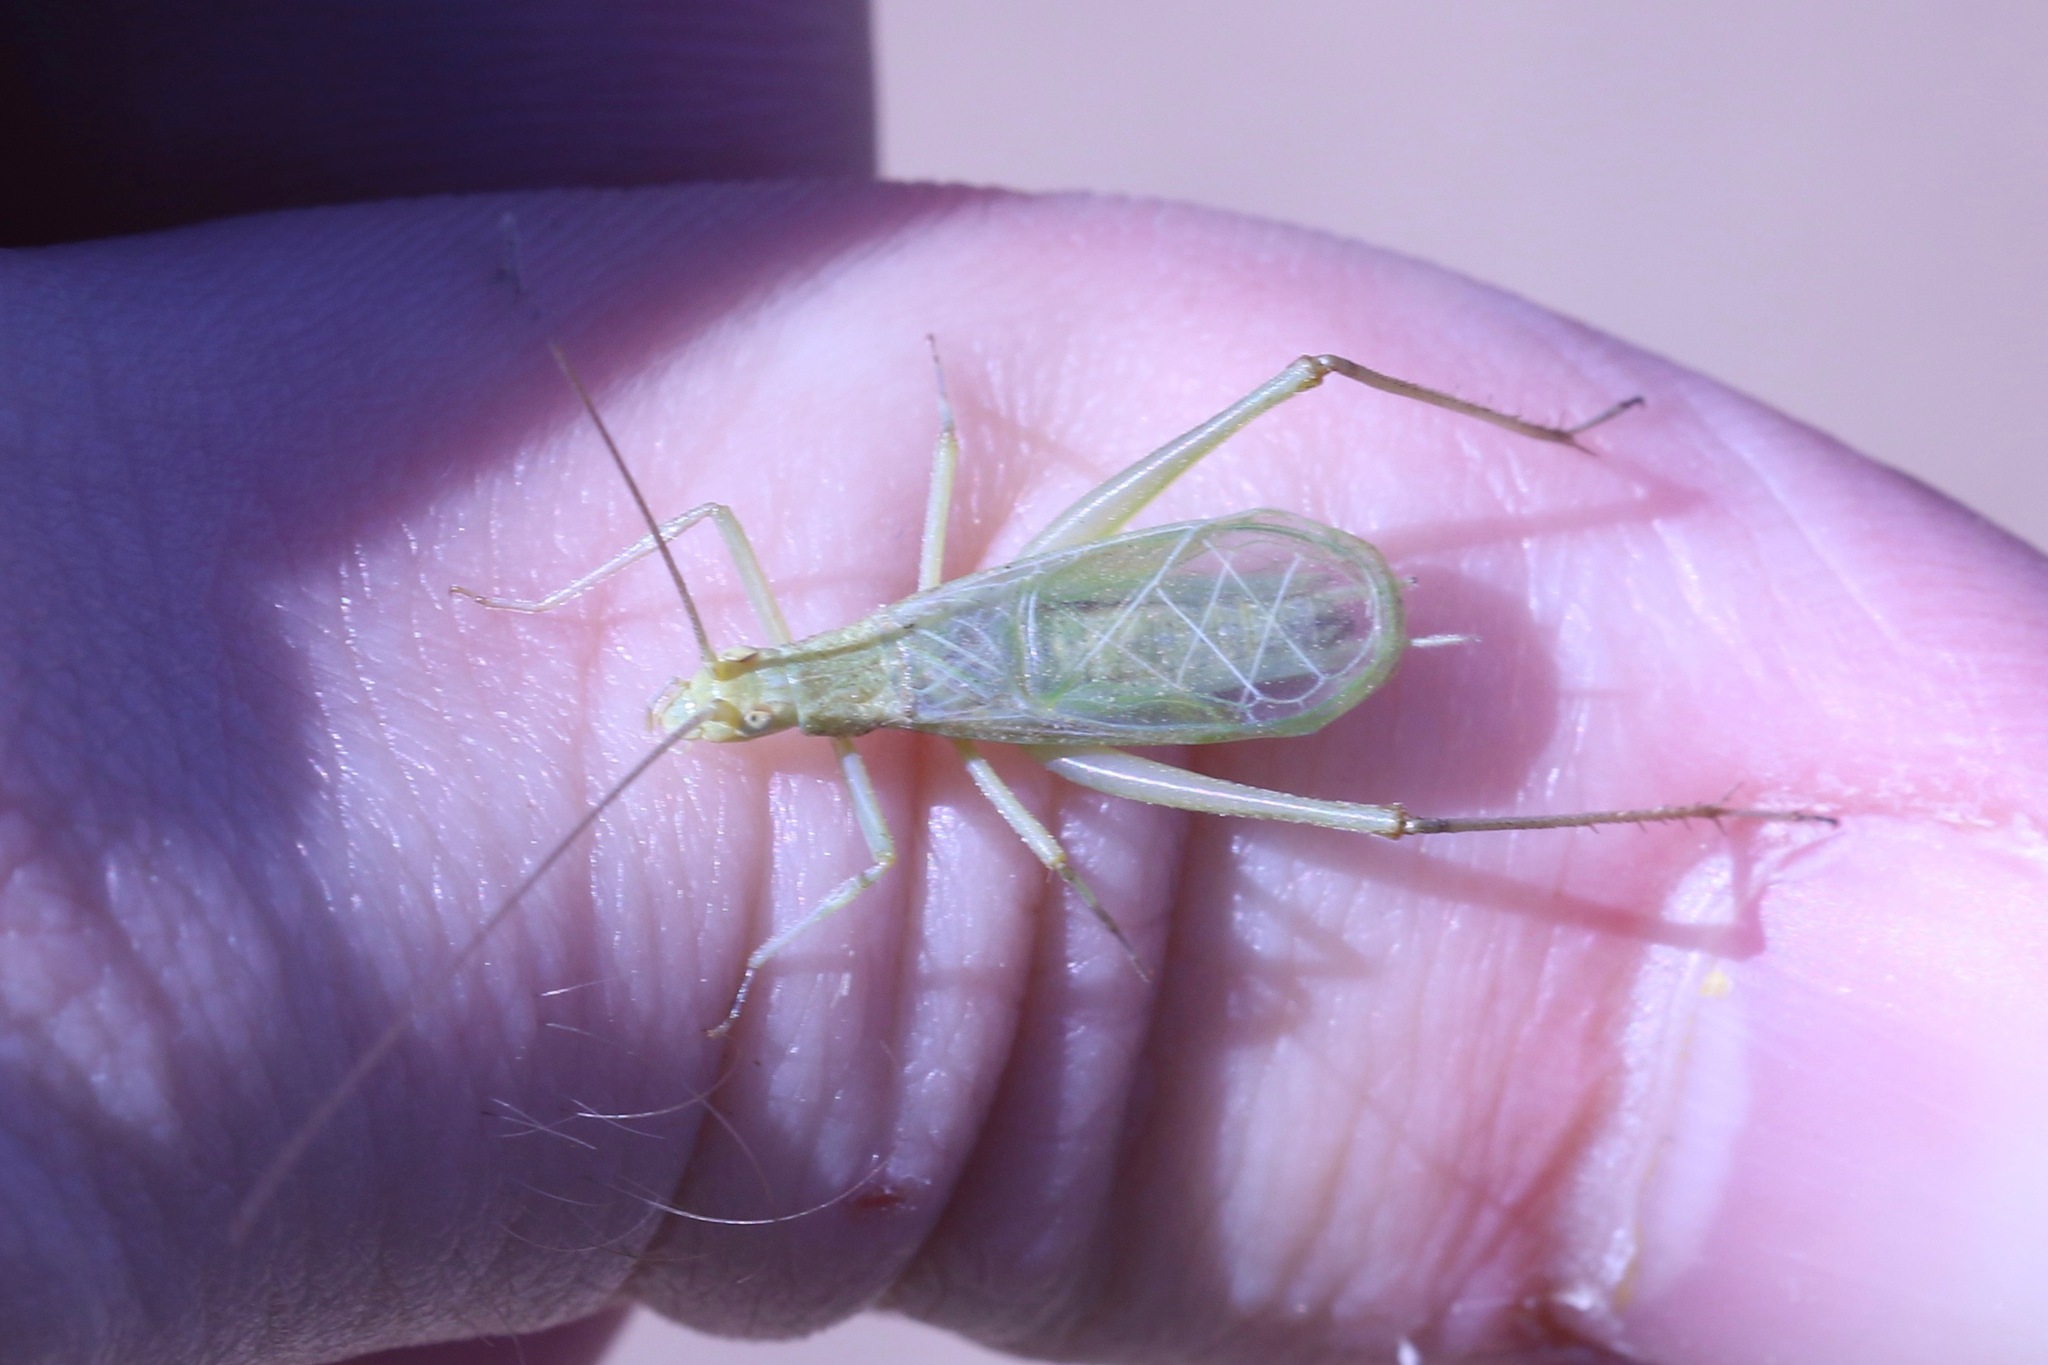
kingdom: Animalia
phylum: Arthropoda
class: Insecta
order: Orthoptera
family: Gryllidae
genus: Oecanthus
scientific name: Oecanthus argentinus
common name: Prairie tree cricket
